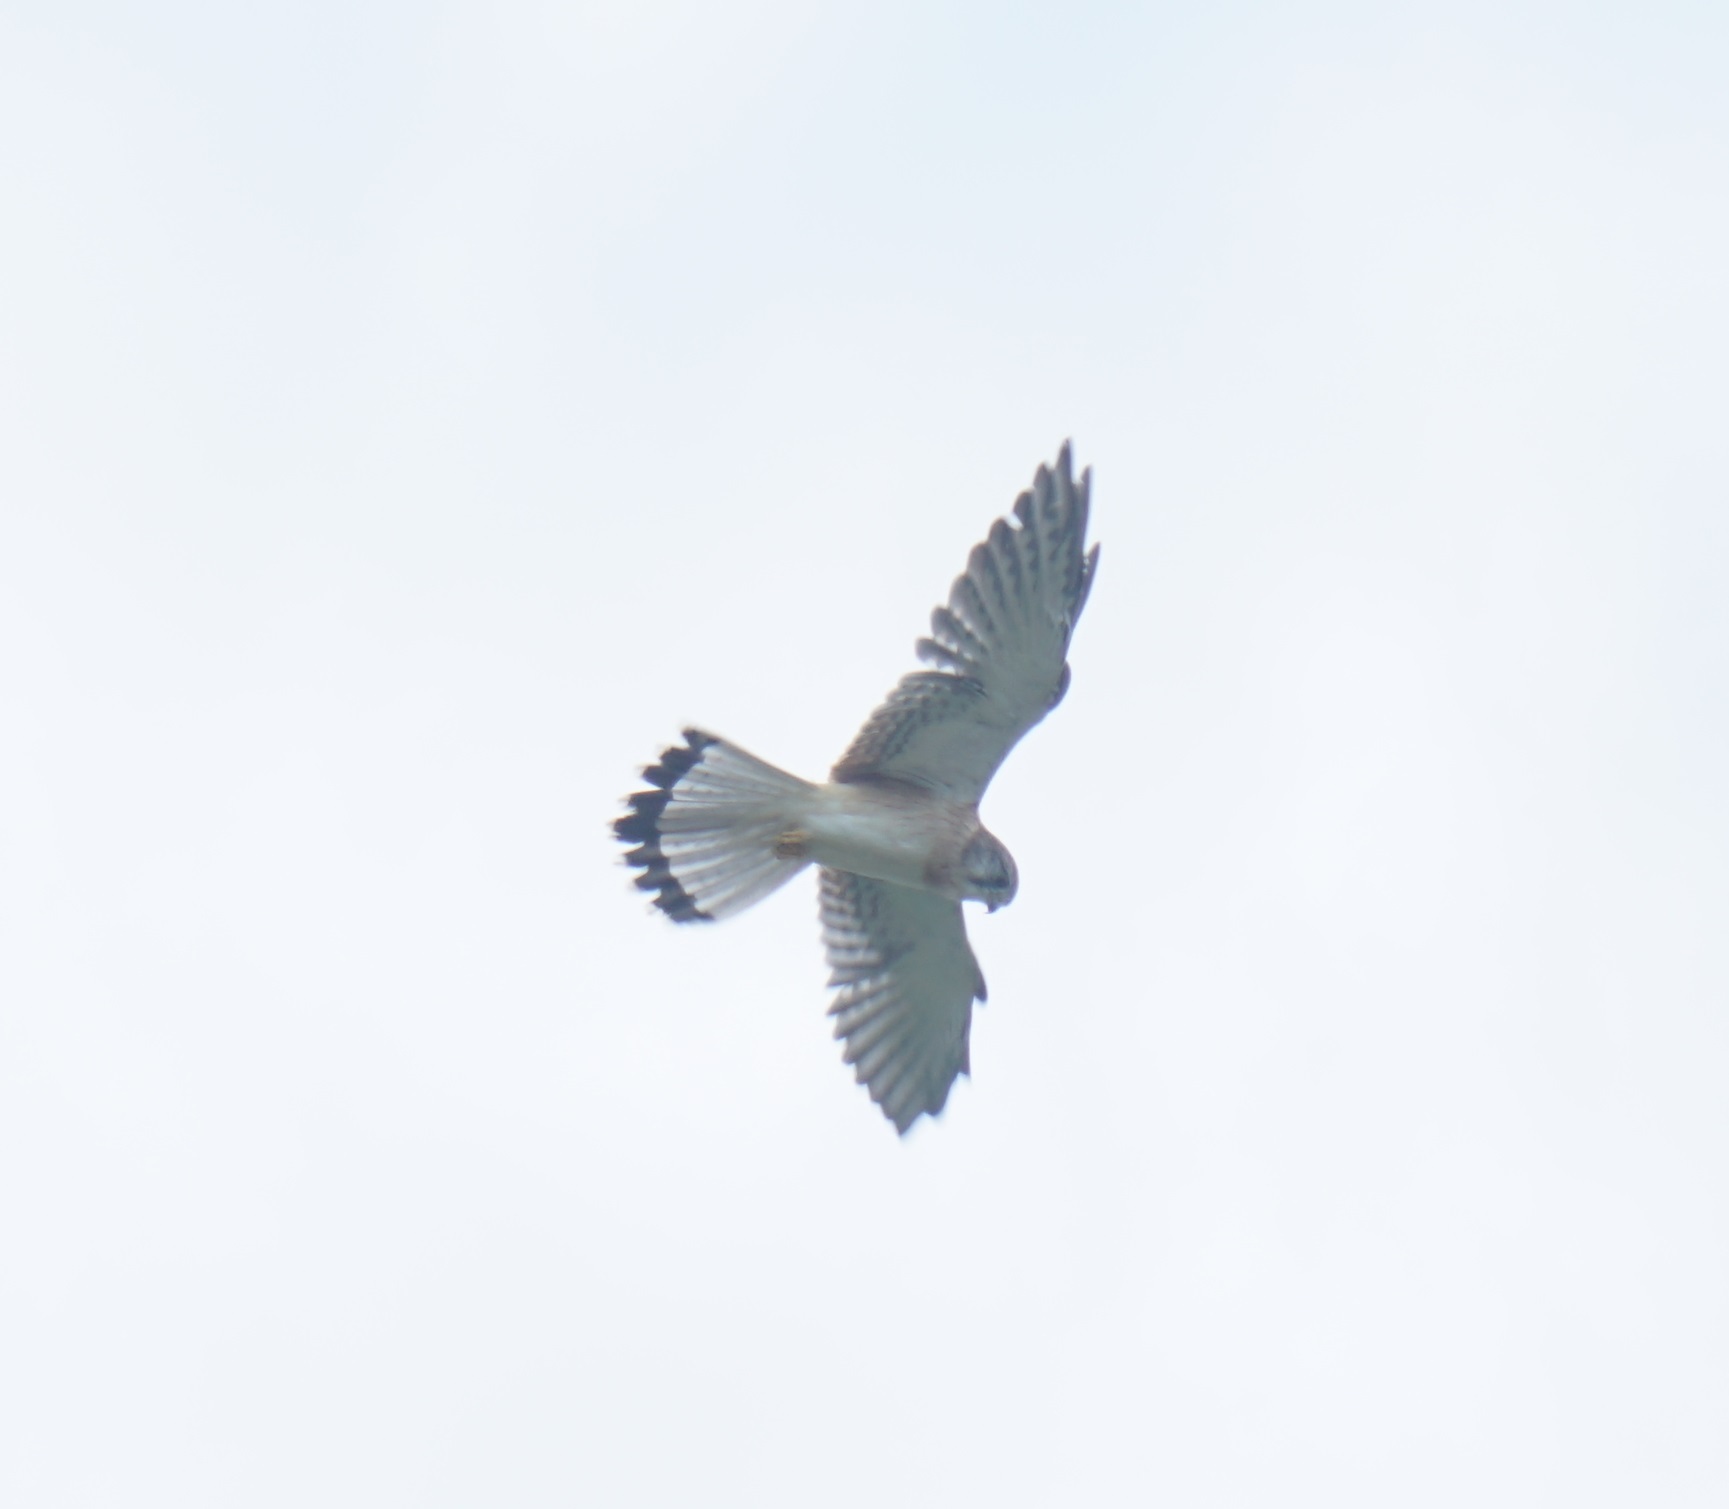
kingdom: Animalia
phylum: Chordata
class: Aves
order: Falconiformes
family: Falconidae
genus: Falco
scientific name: Falco cenchroides
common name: Nankeen kestrel
